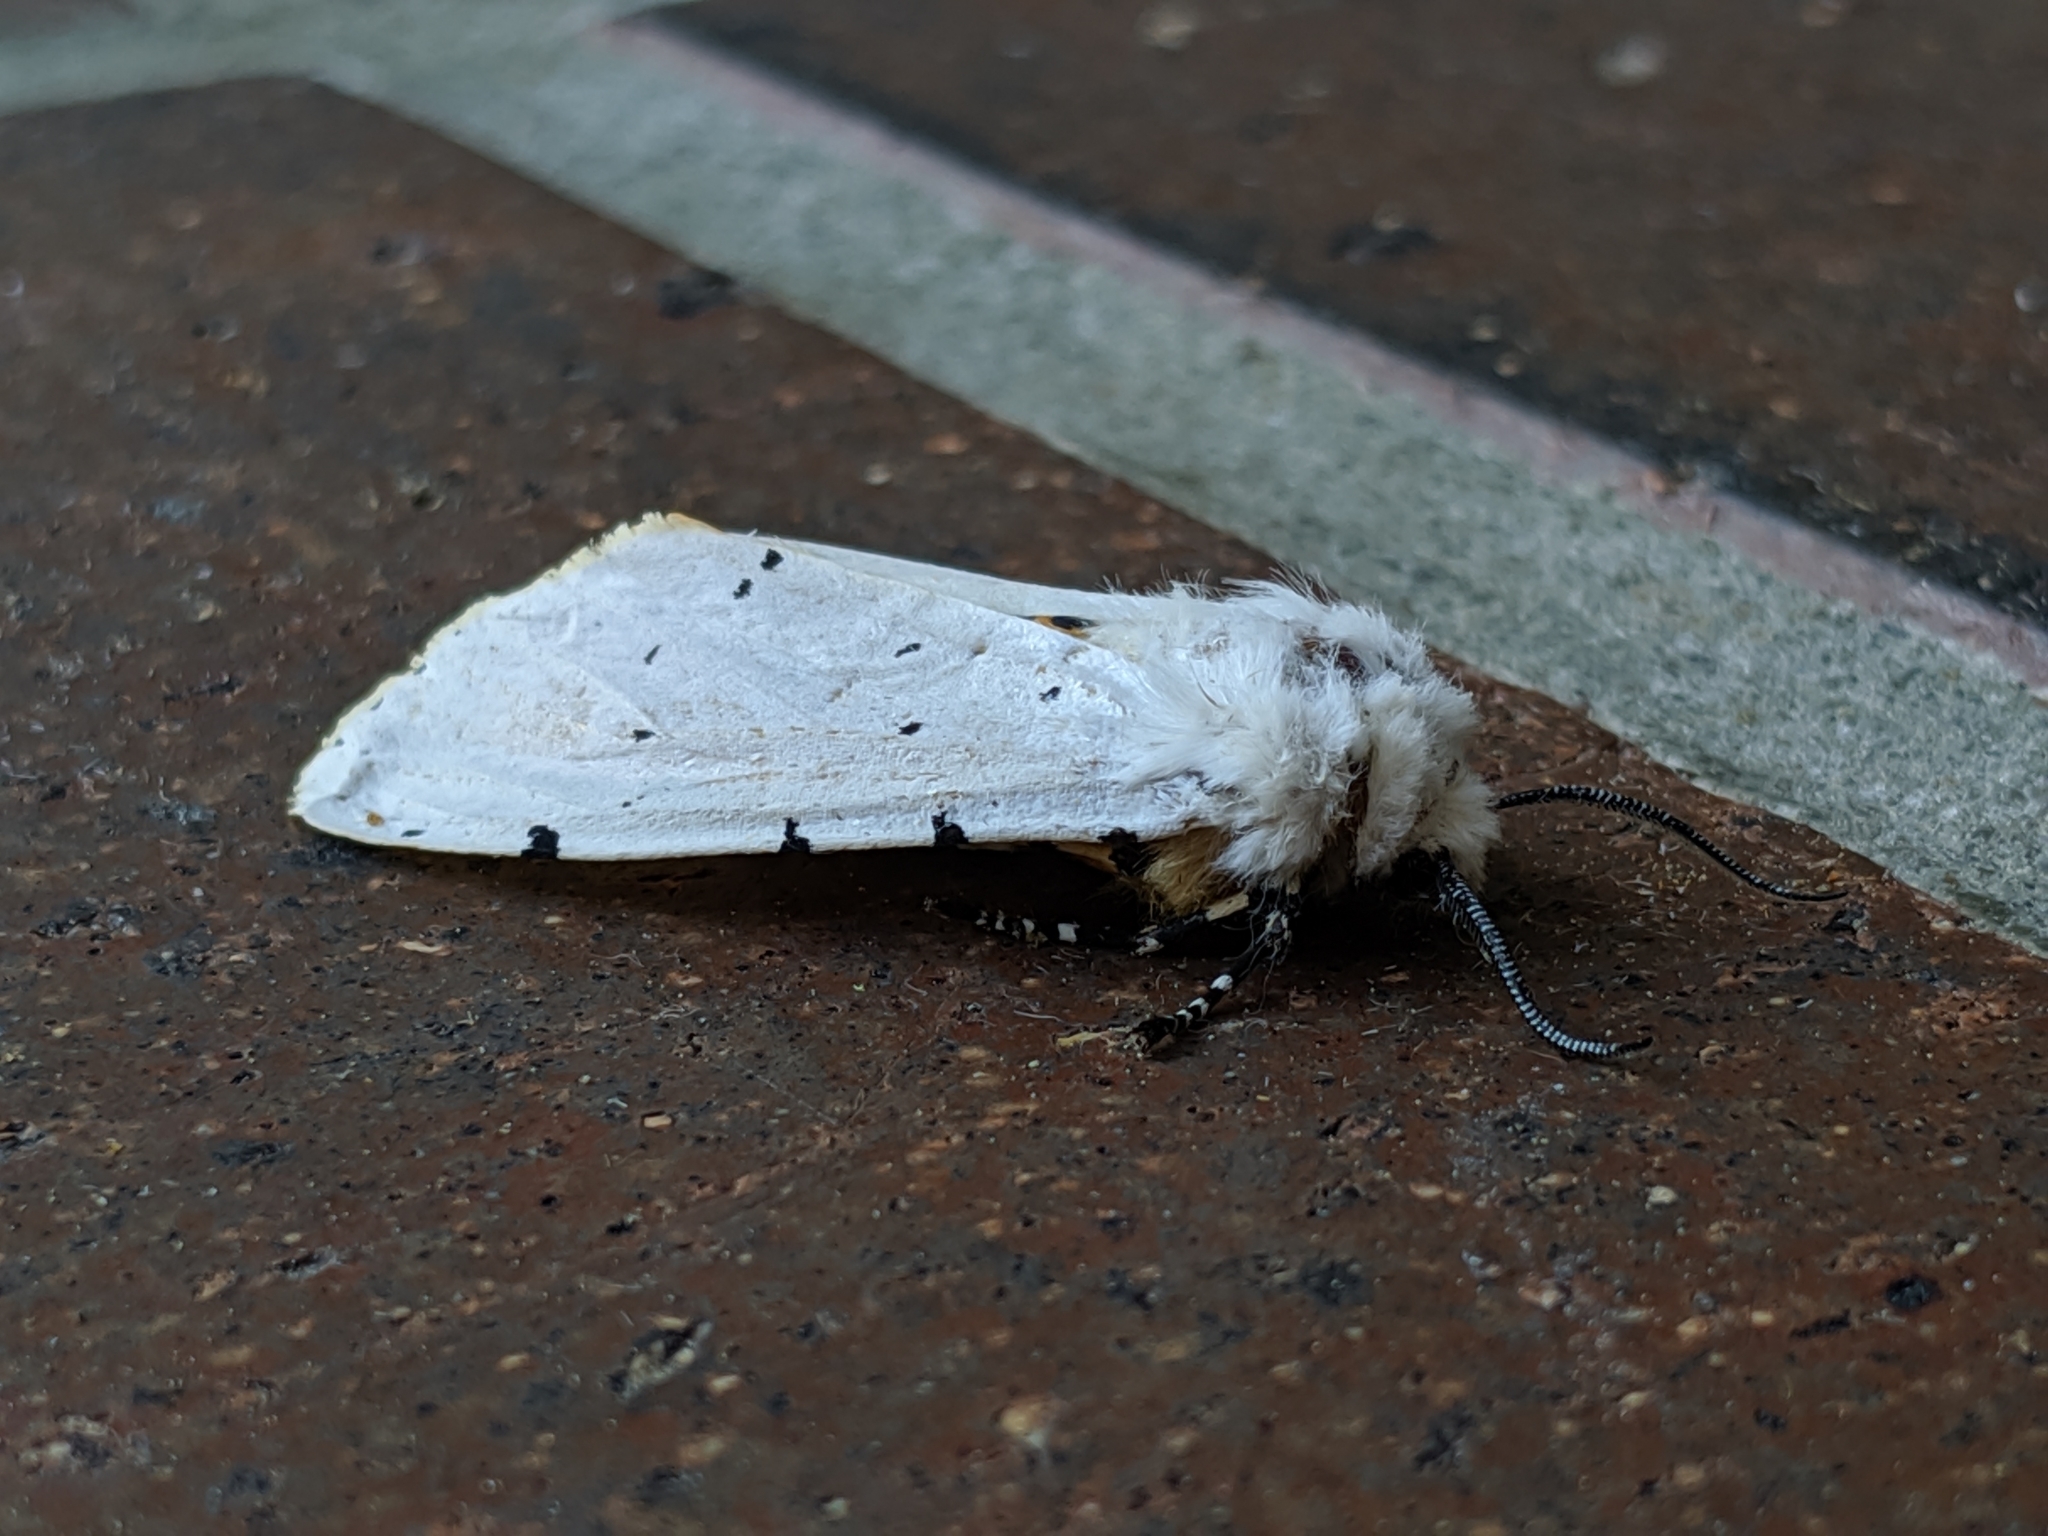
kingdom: Animalia
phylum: Arthropoda
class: Insecta
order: Lepidoptera
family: Erebidae
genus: Estigmene
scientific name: Estigmene acrea
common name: Salt marsh moth
